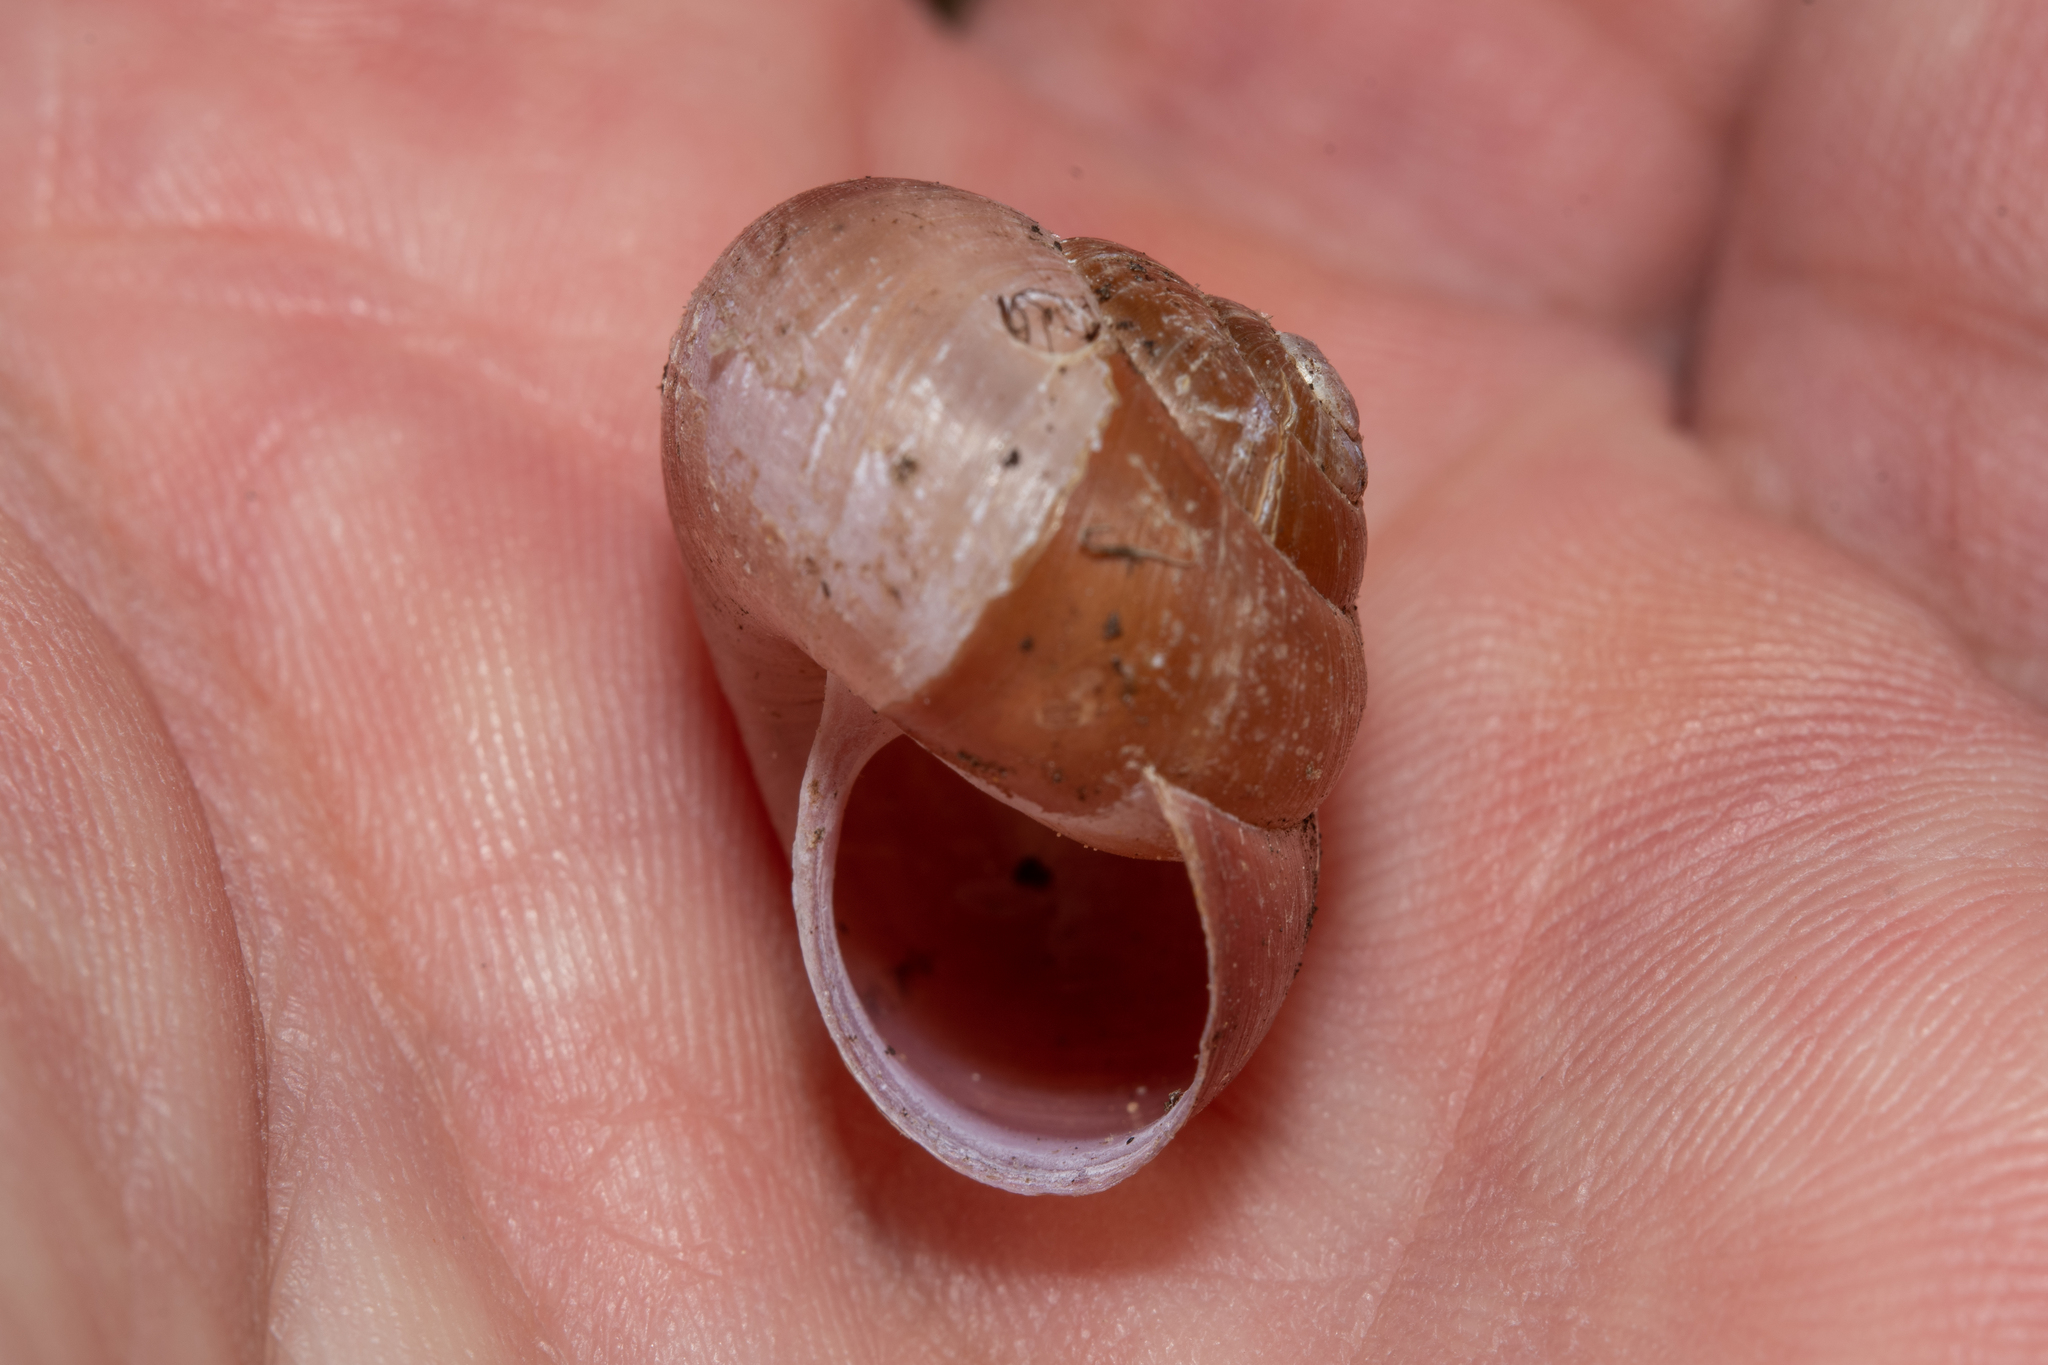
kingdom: Animalia
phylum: Mollusca
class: Gastropoda
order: Stylommatophora
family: Camaenidae
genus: Fruticicola
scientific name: Fruticicola fruticum
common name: Bush snail
